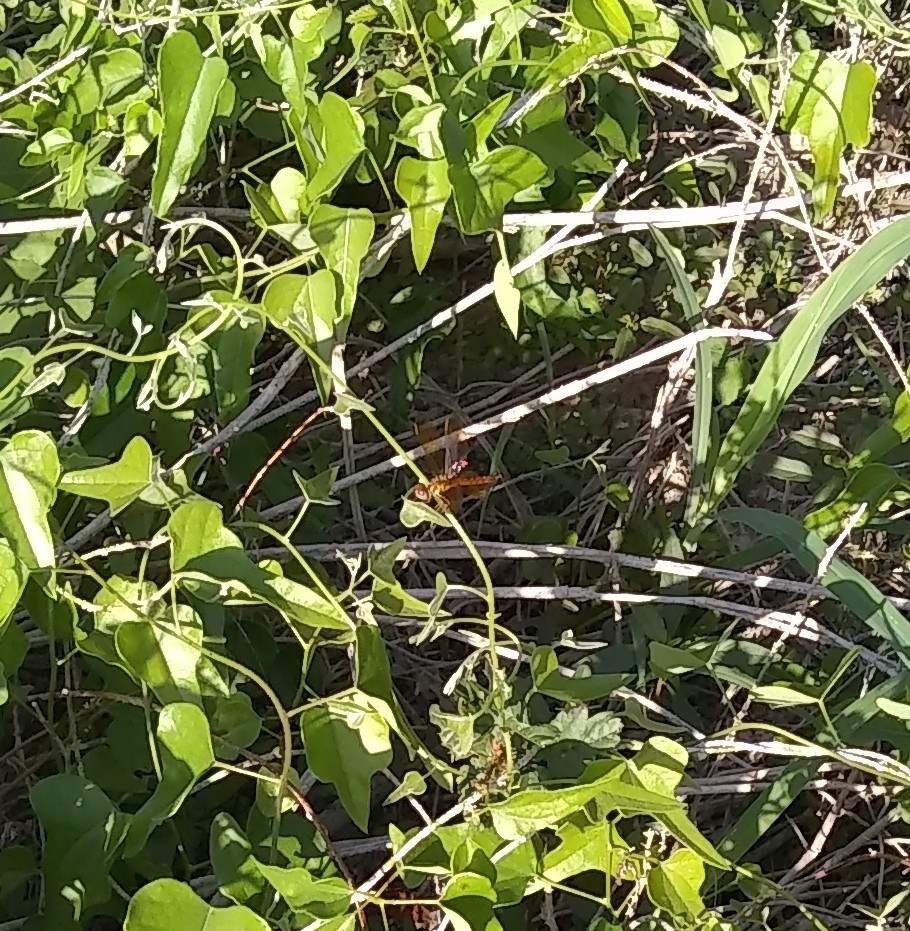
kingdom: Animalia
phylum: Arthropoda
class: Insecta
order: Odonata
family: Libellulidae
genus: Perithemis
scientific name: Perithemis tenera
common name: Eastern amberwing
